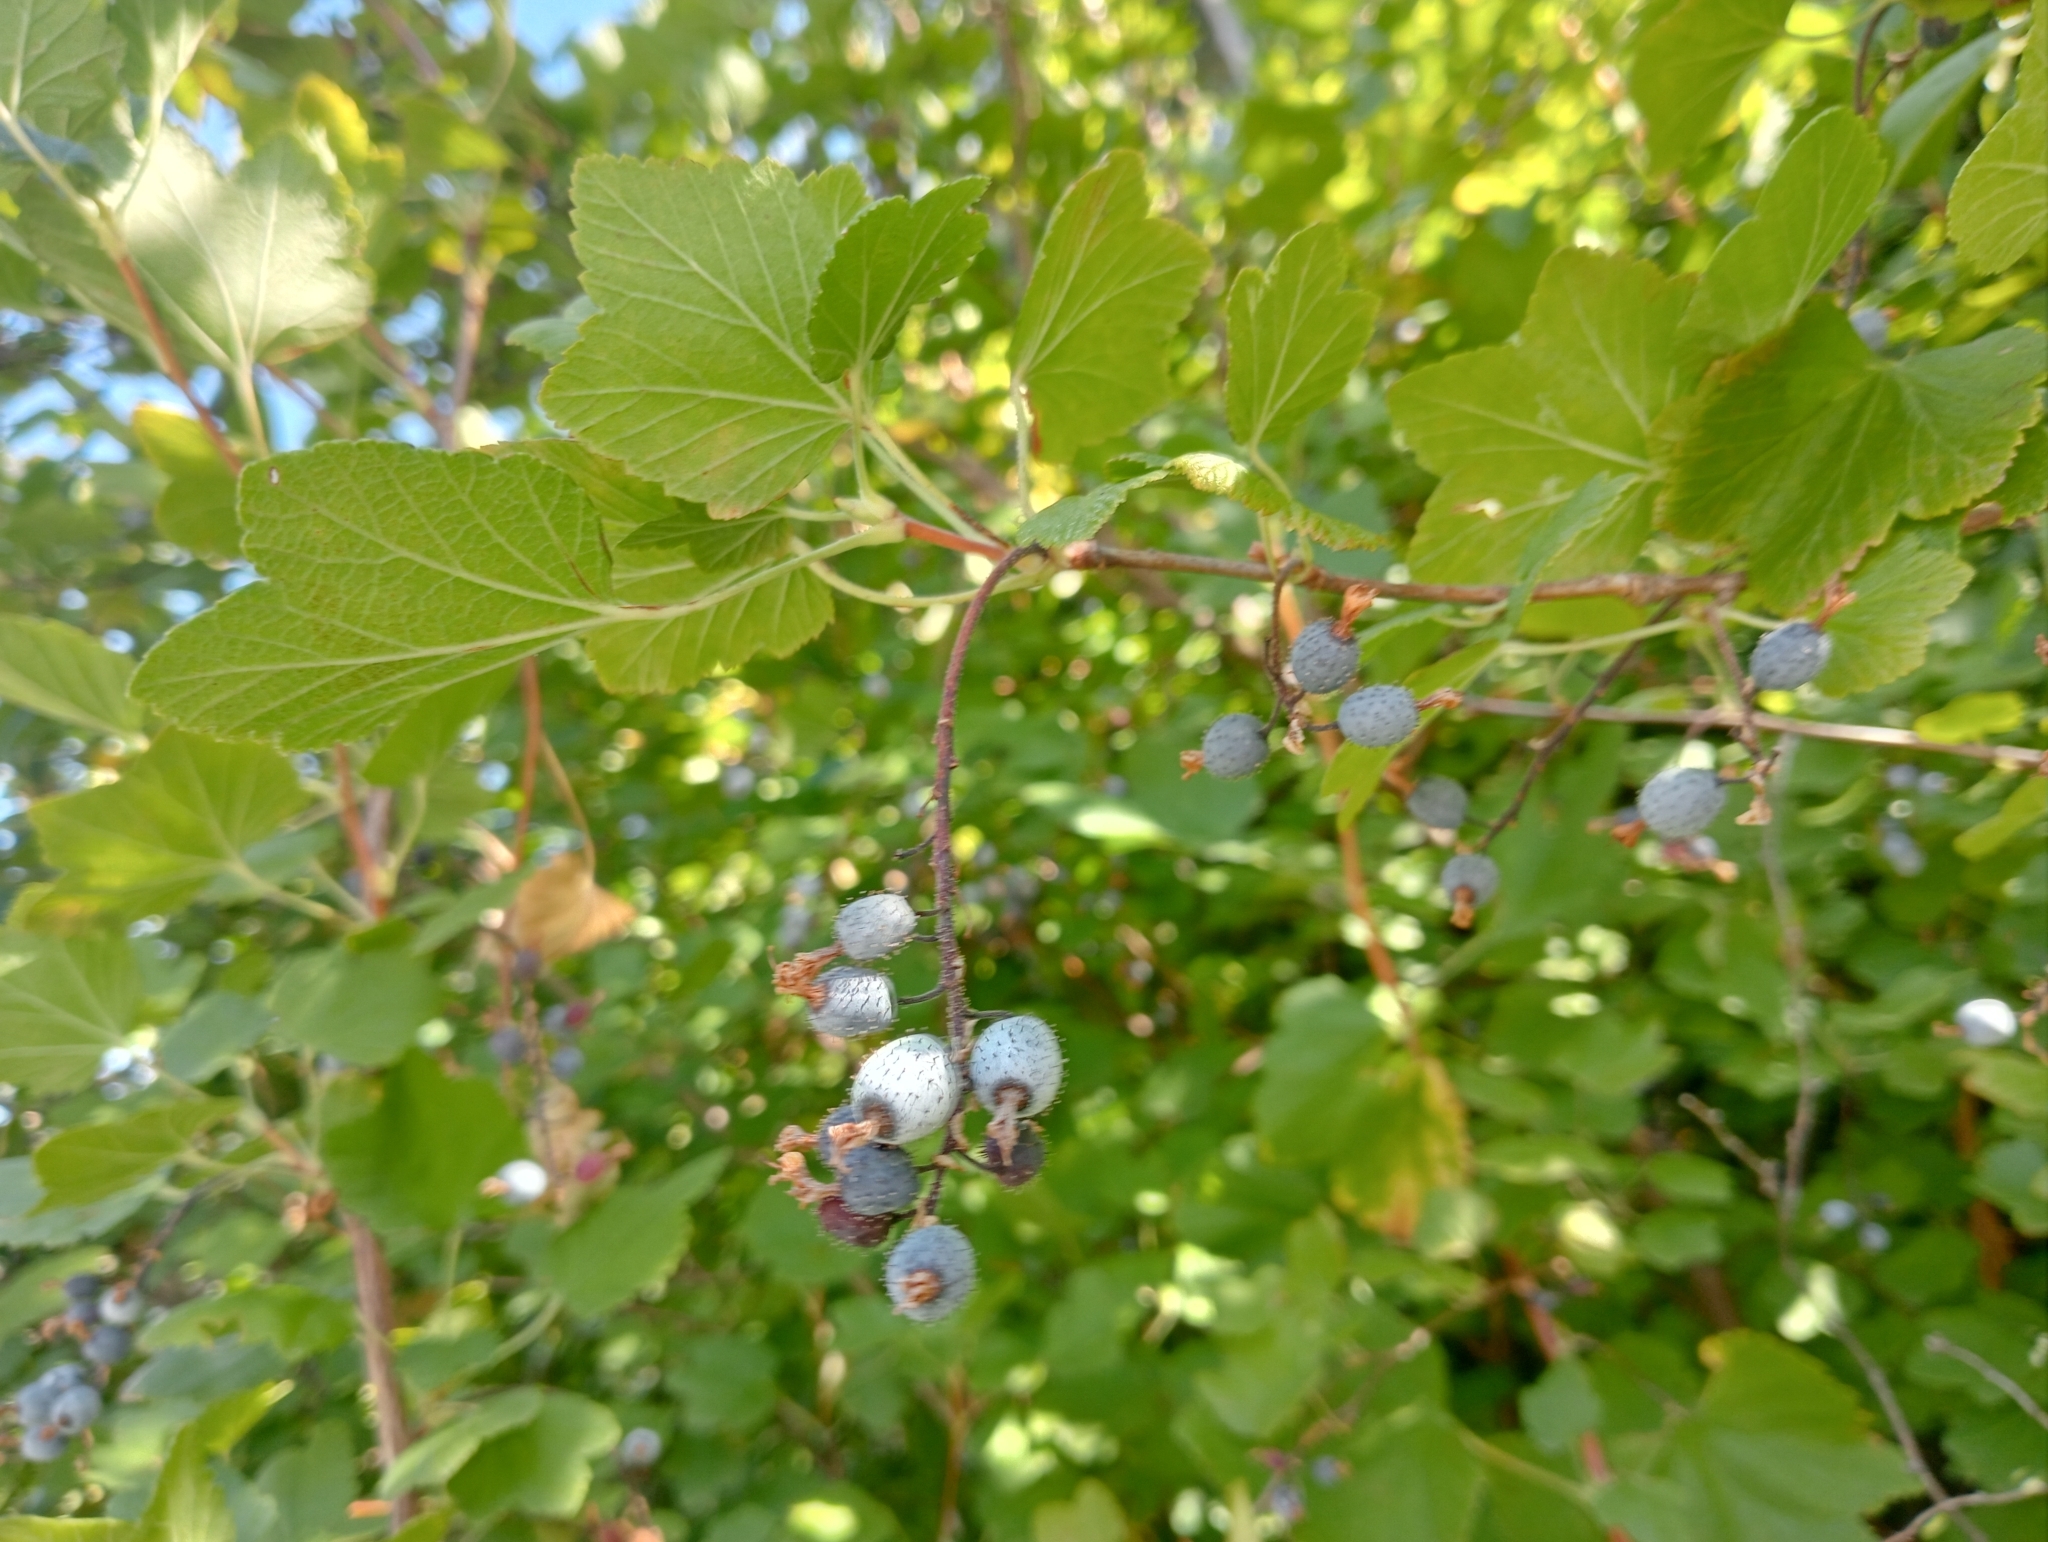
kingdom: Plantae
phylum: Tracheophyta
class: Magnoliopsida
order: Saxifragales
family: Grossulariaceae
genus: Ribes
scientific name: Ribes sanguineum
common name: Flowering currant
